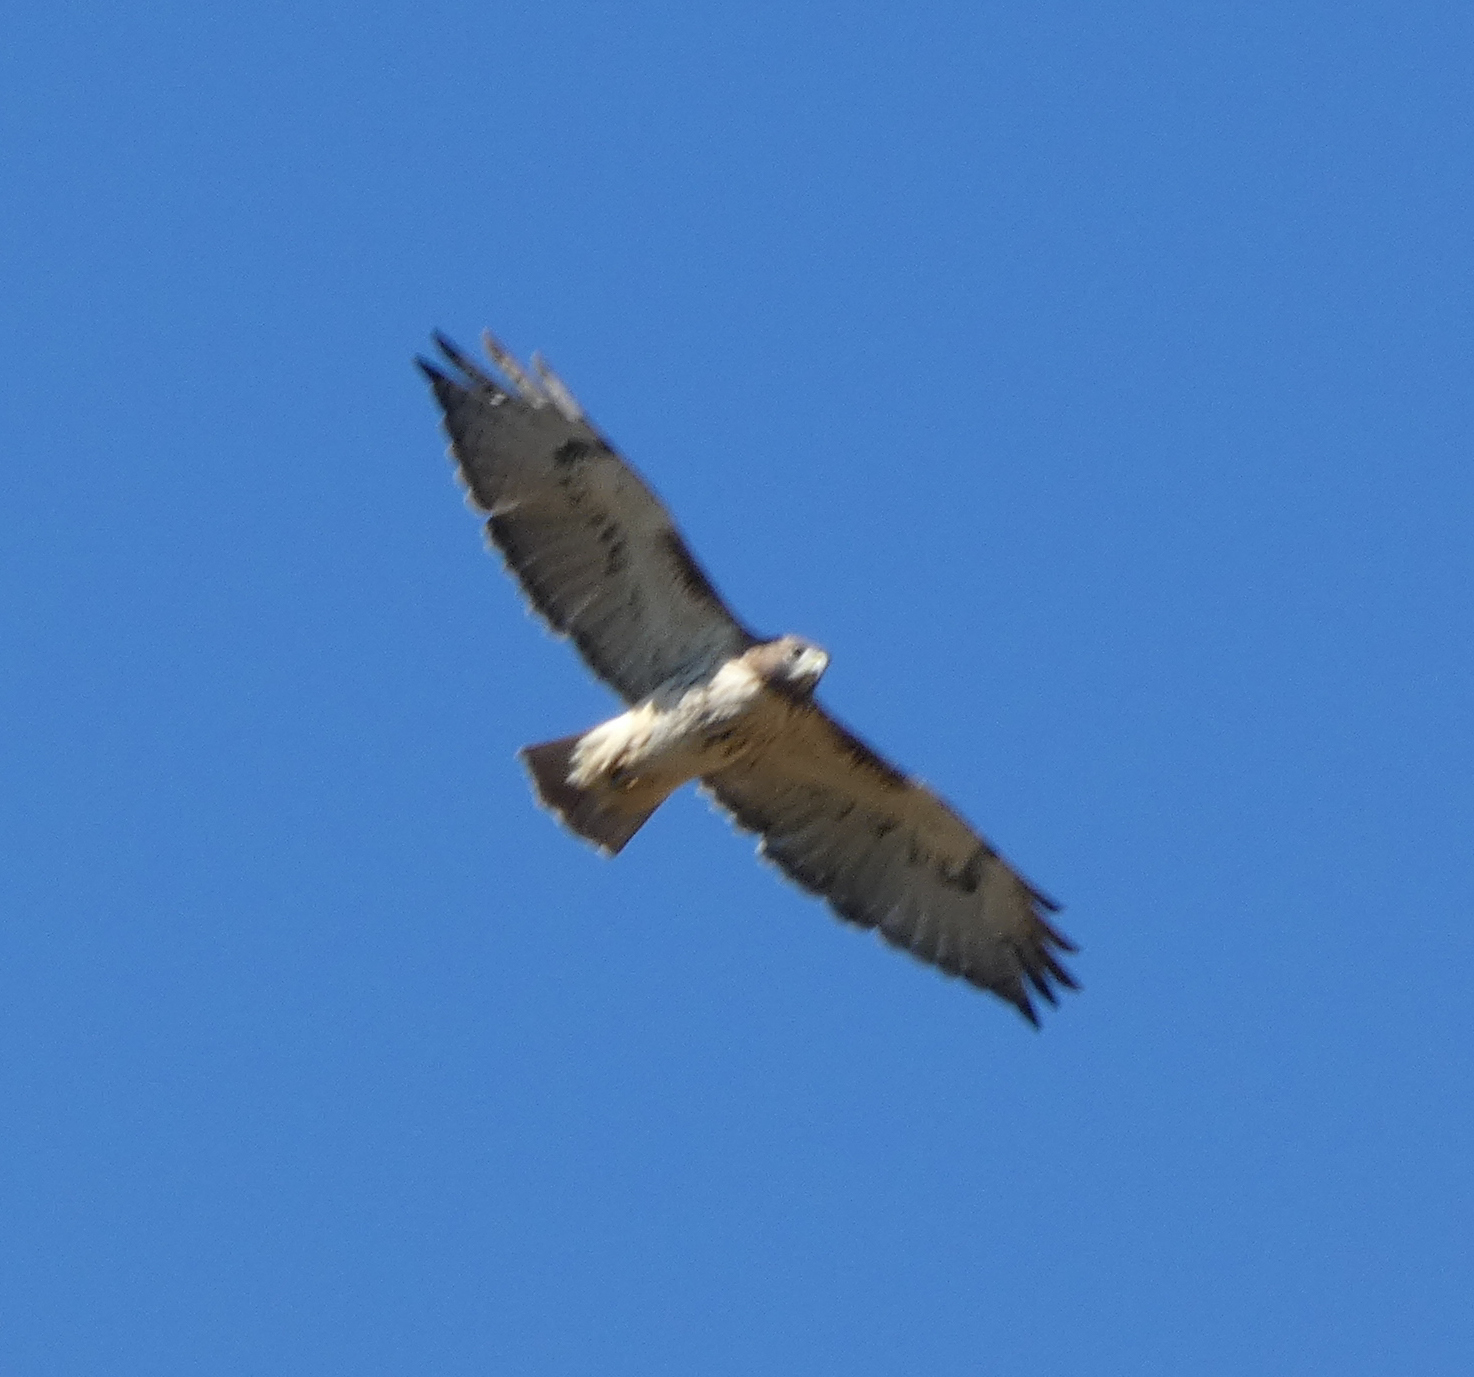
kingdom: Animalia
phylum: Chordata
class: Aves
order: Accipitriformes
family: Accipitridae
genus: Buteo
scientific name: Buteo jamaicensis
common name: Red-tailed hawk
